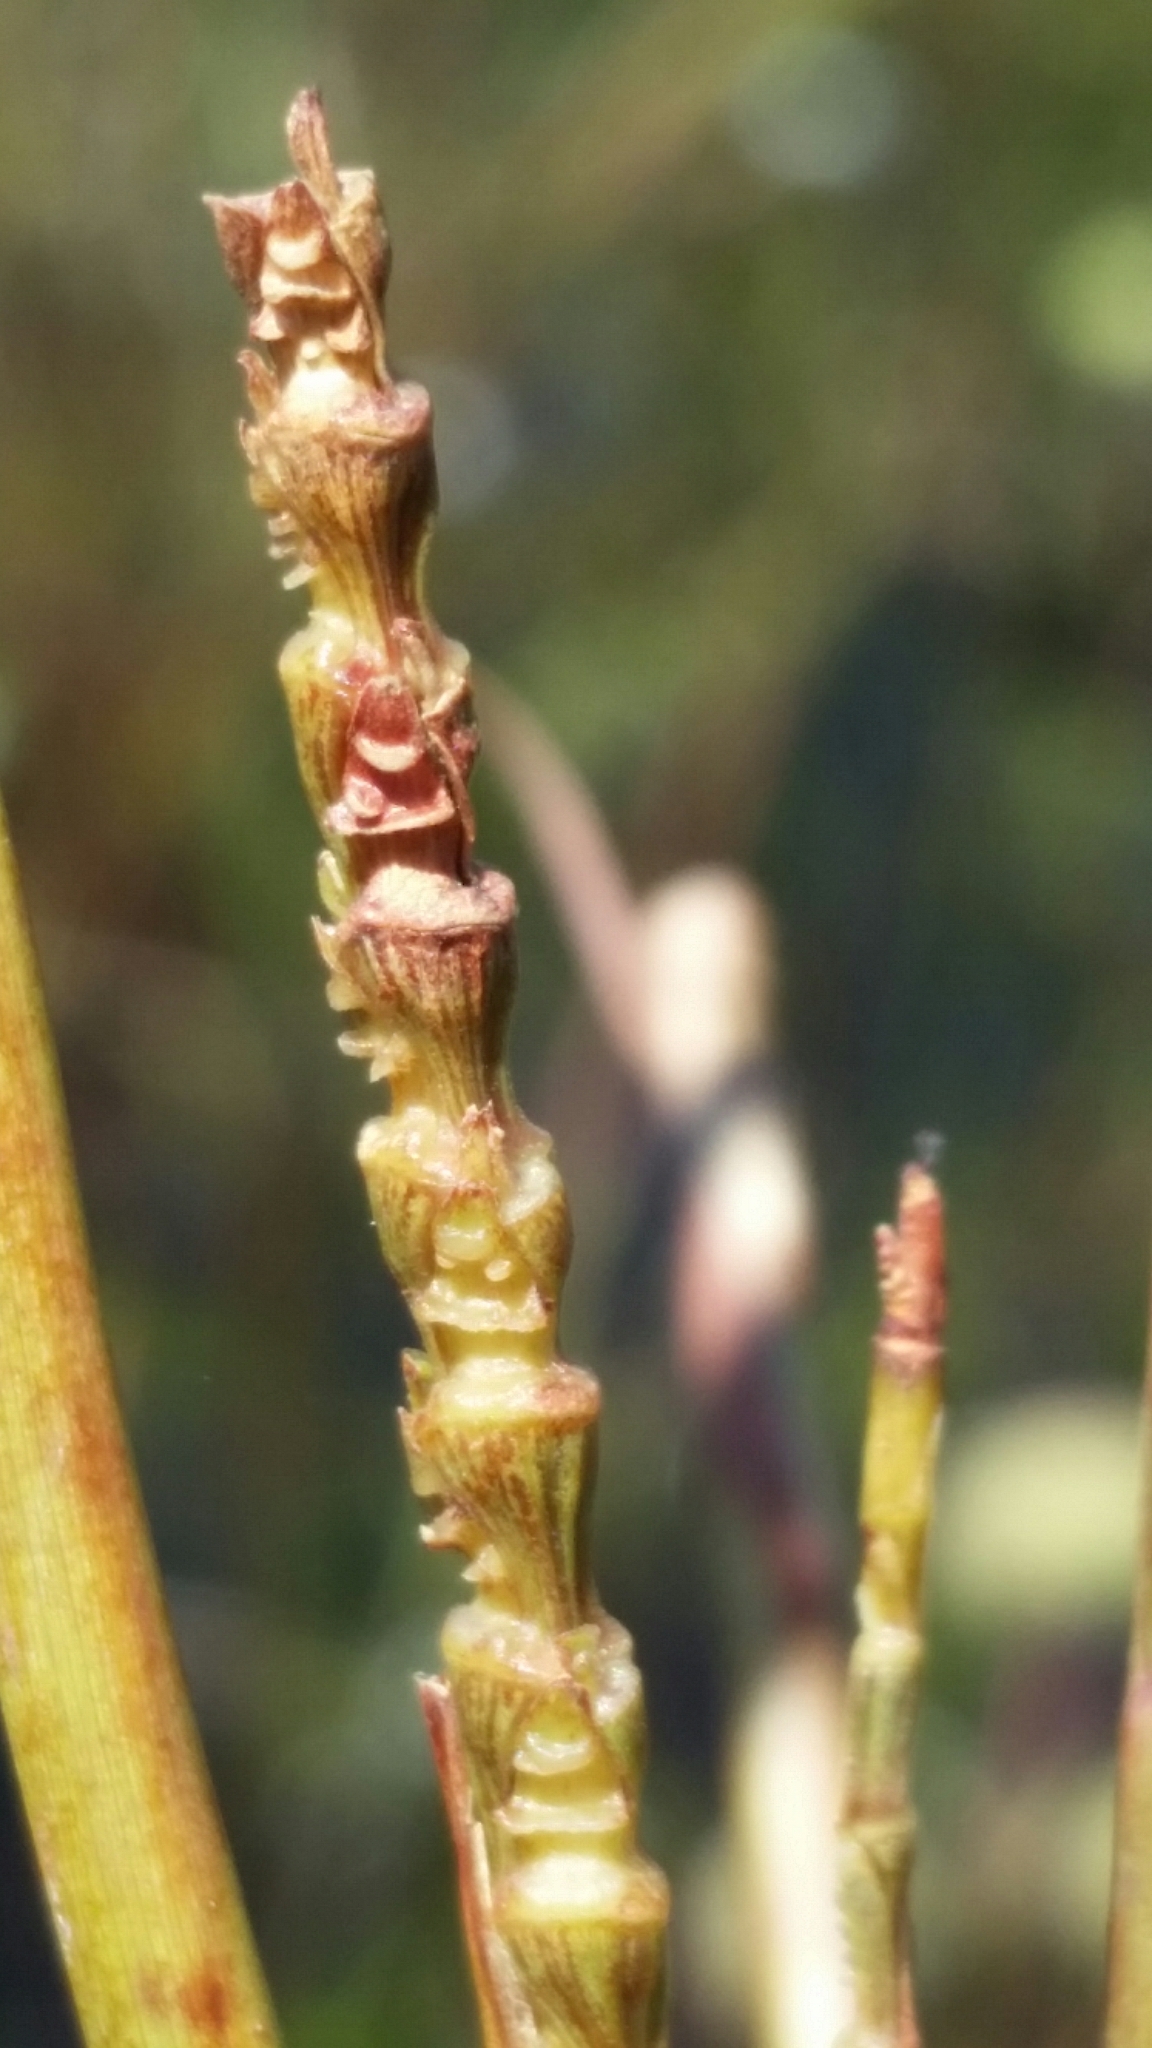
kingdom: Plantae
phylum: Tracheophyta
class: Liliopsida
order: Poales
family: Poaceae
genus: Rottboellia
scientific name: Rottboellia rugosa
